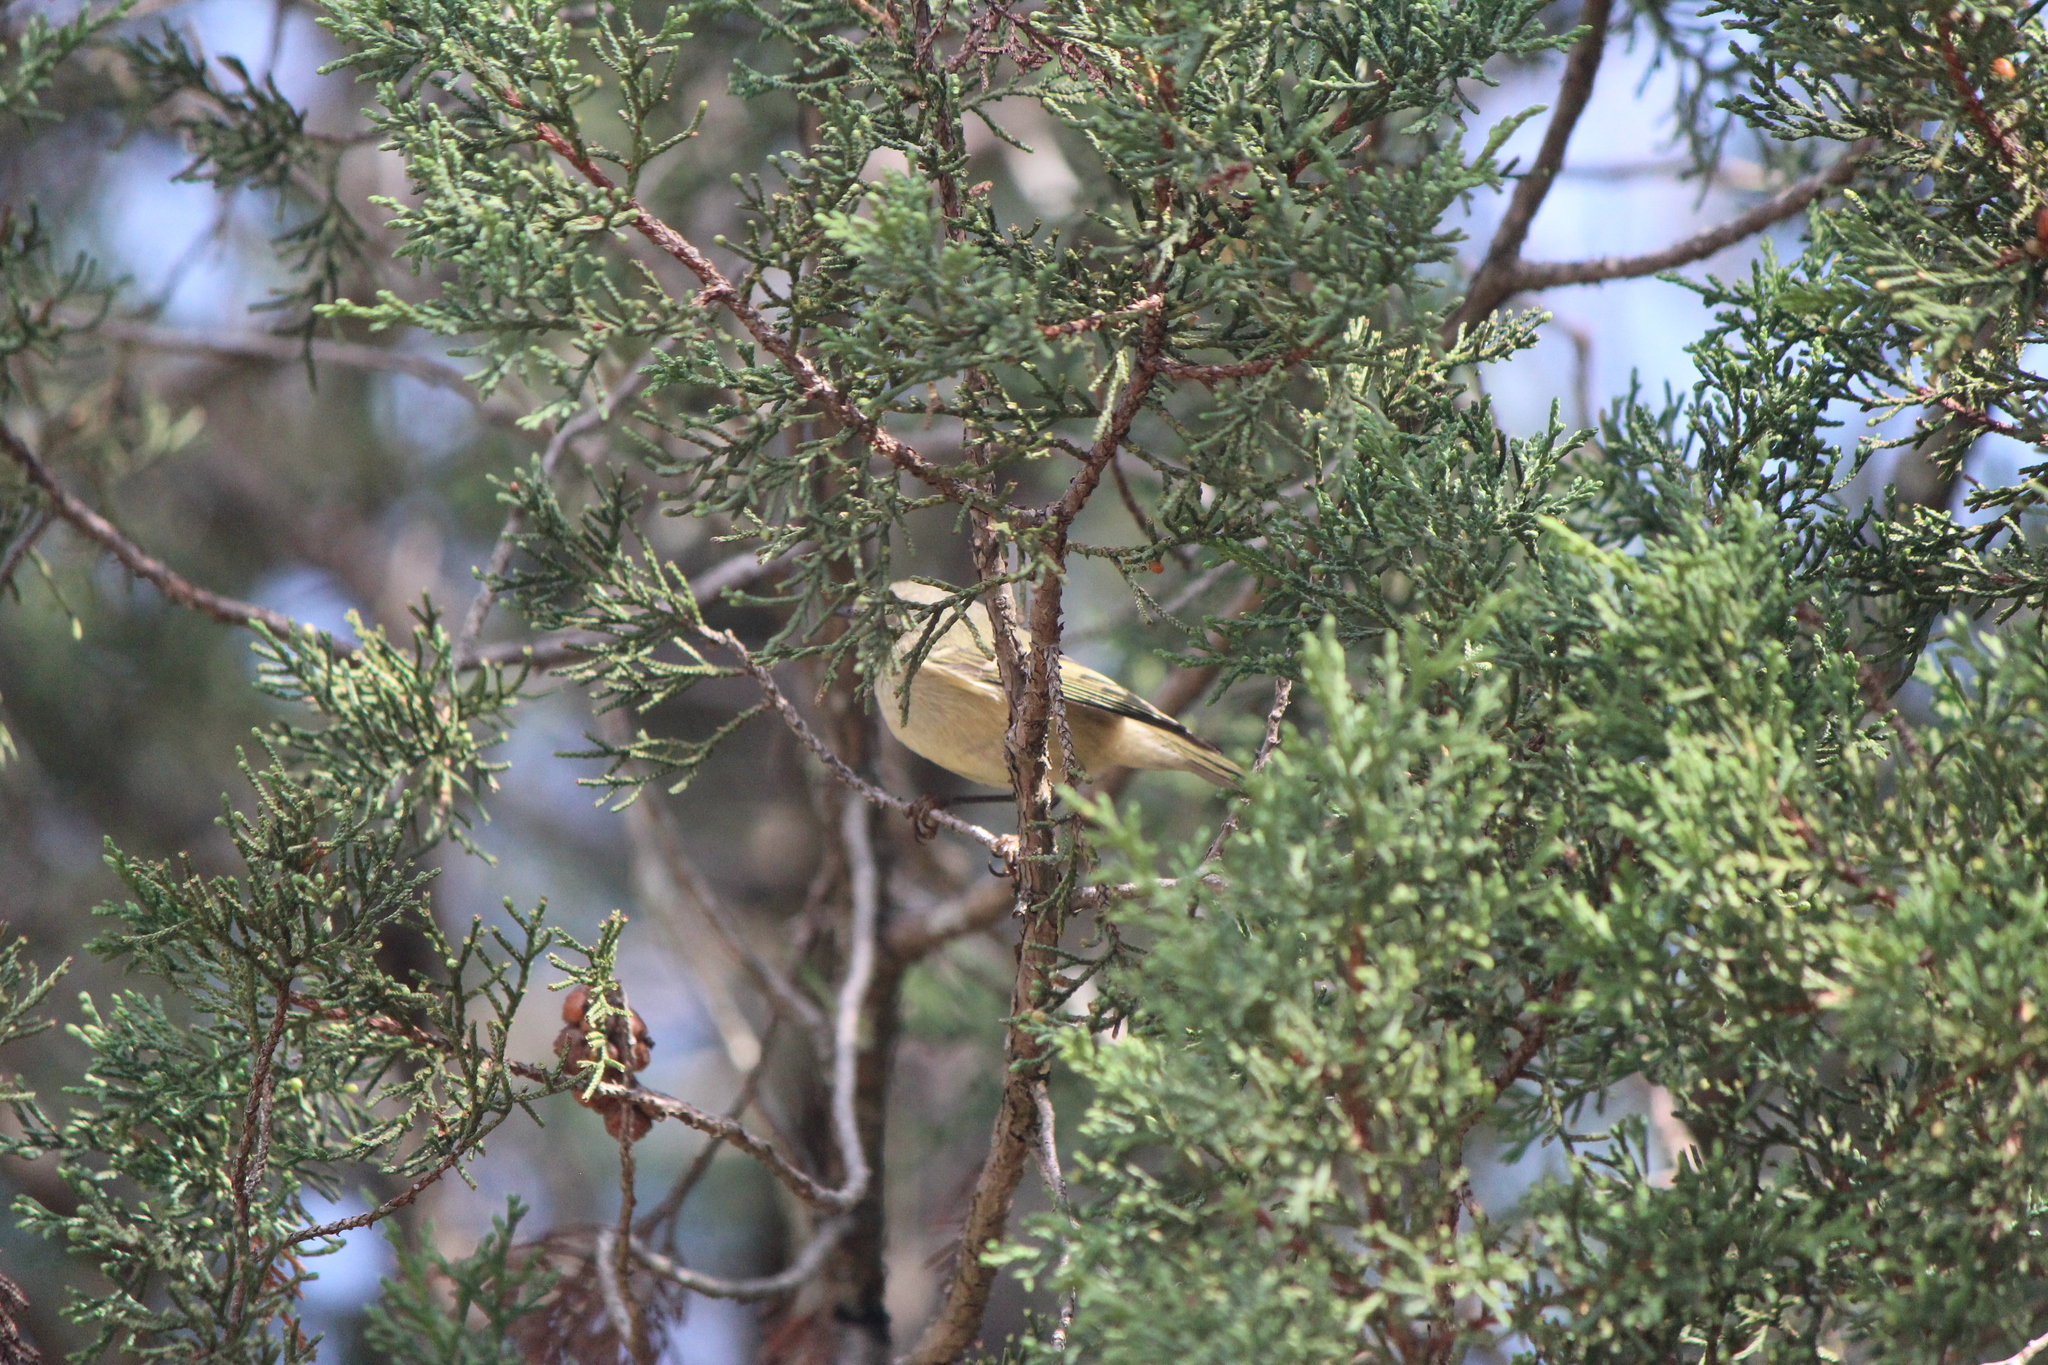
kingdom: Animalia
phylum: Chordata
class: Aves
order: Passeriformes
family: Regulidae
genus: Regulus
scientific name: Regulus calendula
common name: Ruby-crowned kinglet
